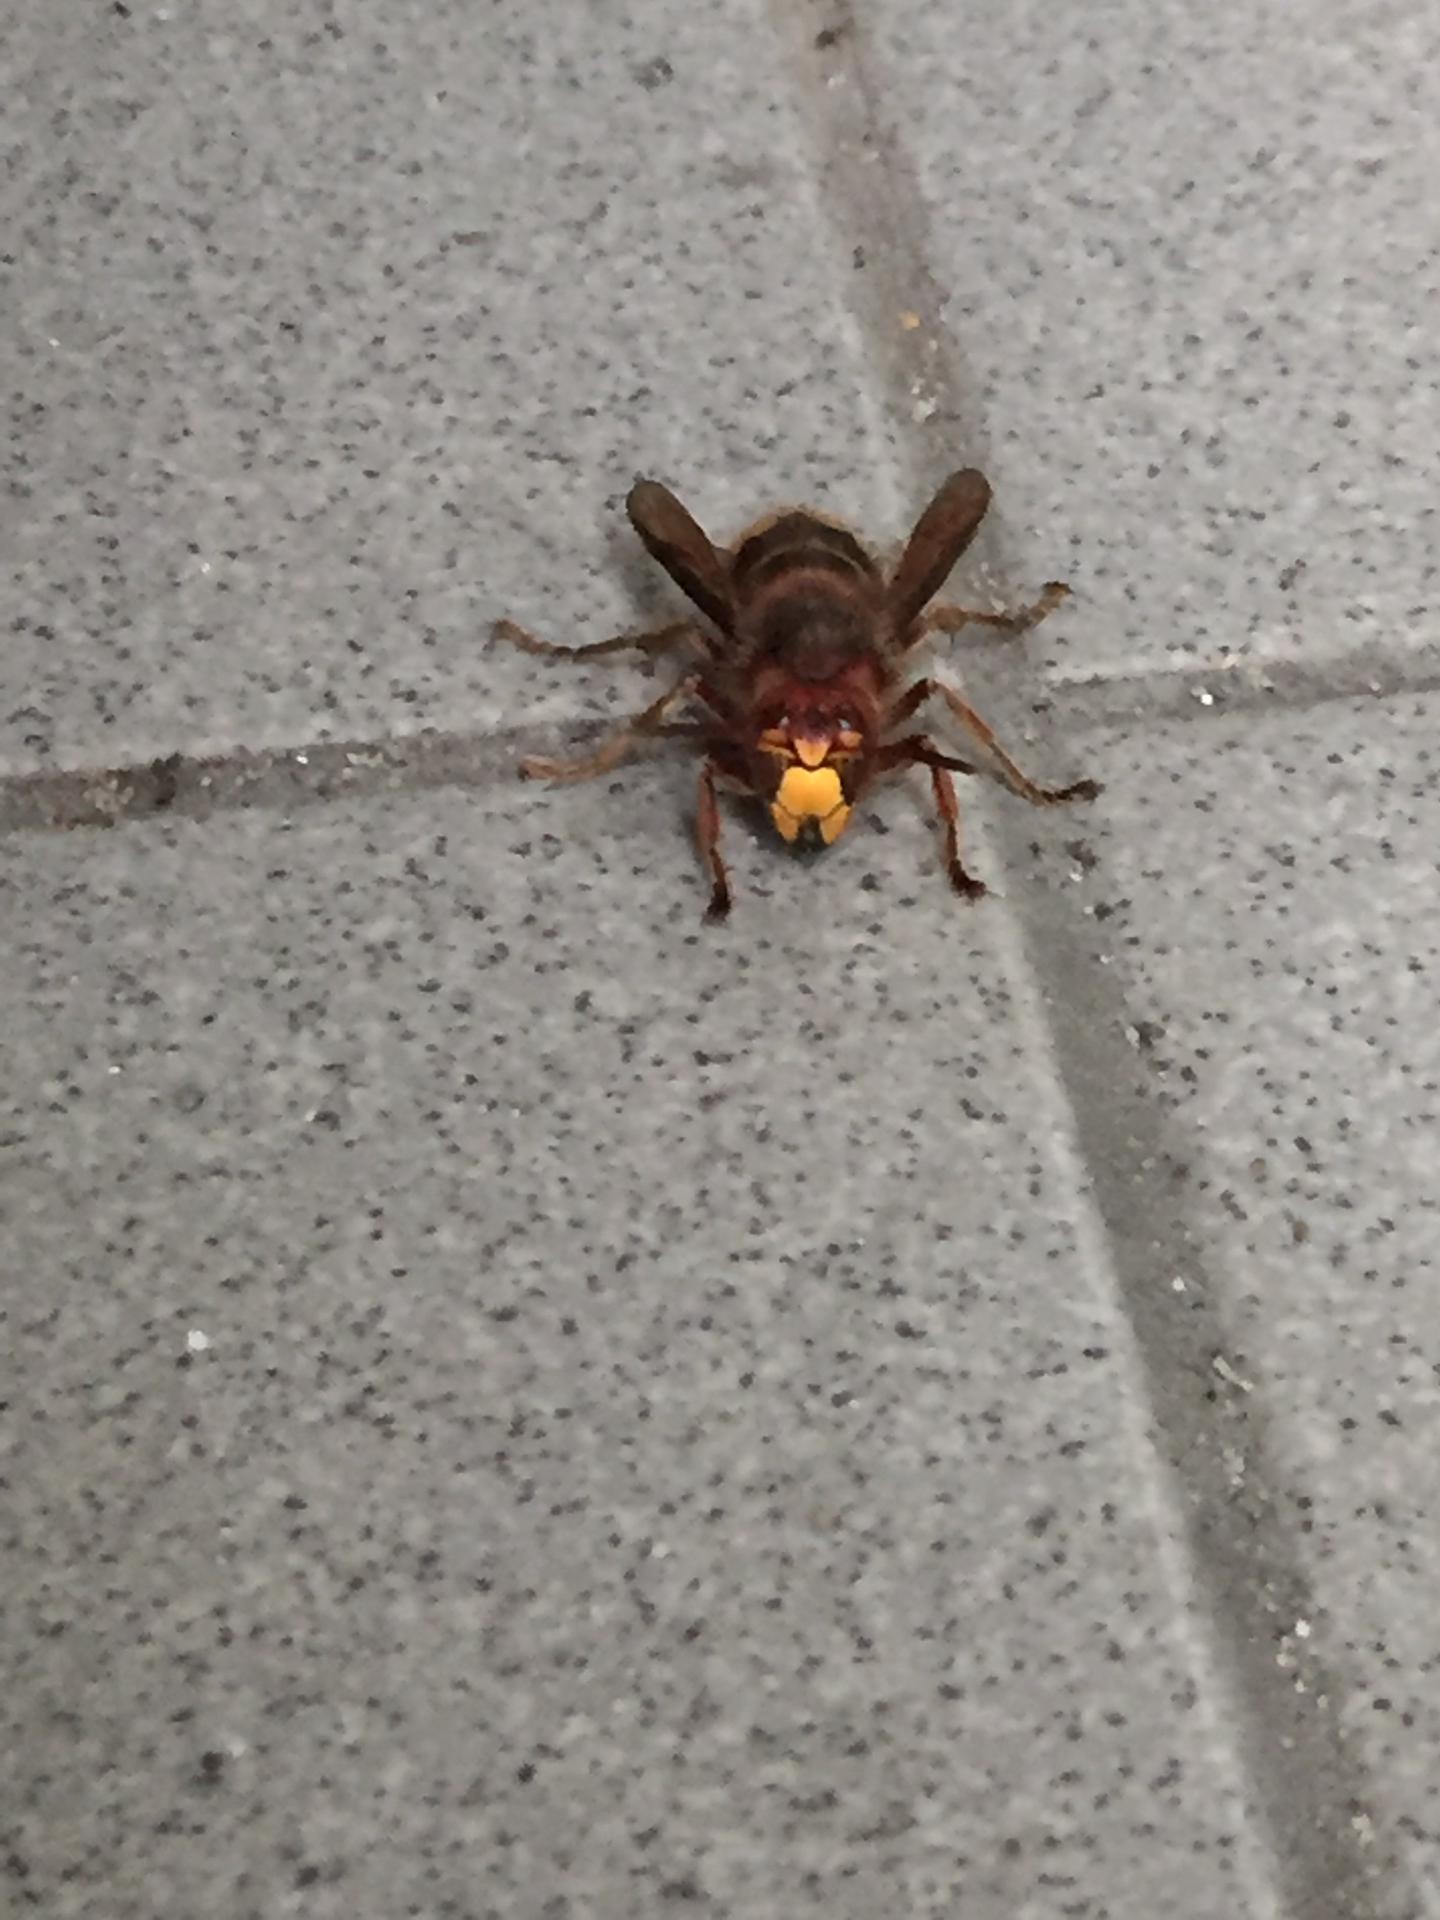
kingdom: Animalia
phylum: Arthropoda
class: Insecta
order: Hymenoptera
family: Vespidae
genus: Vespa
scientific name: Vespa crabro
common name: Hornet
